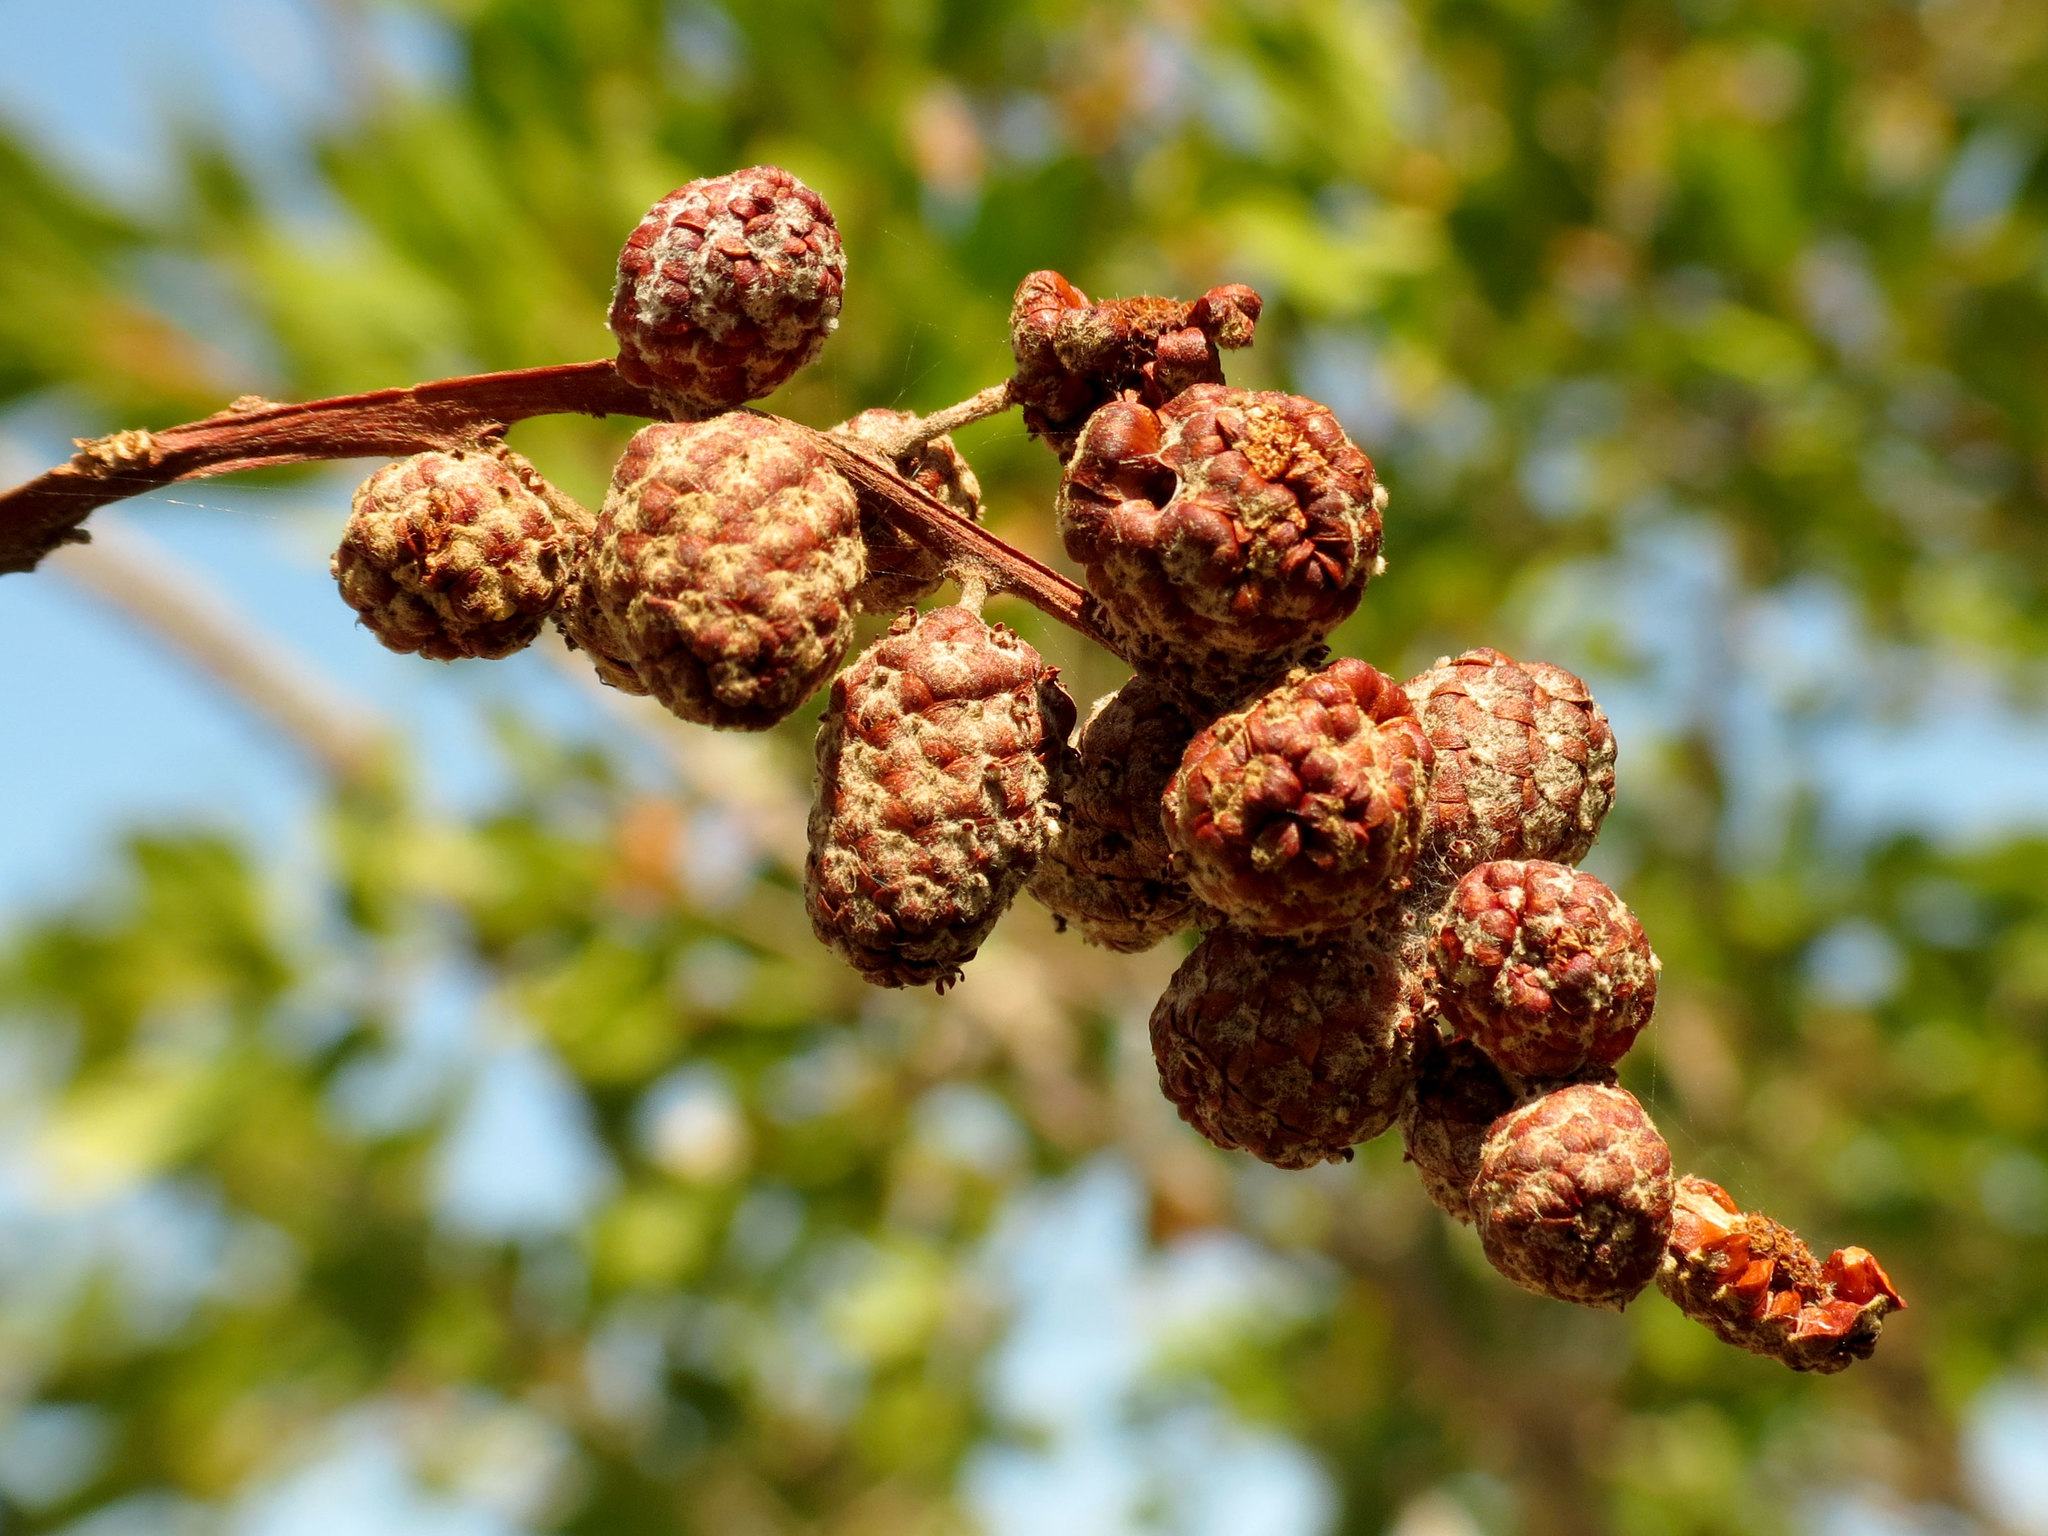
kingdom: Plantae
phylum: Tracheophyta
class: Magnoliopsida
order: Myrtales
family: Combretaceae
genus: Conocarpus
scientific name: Conocarpus erectus
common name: Button mangrove
